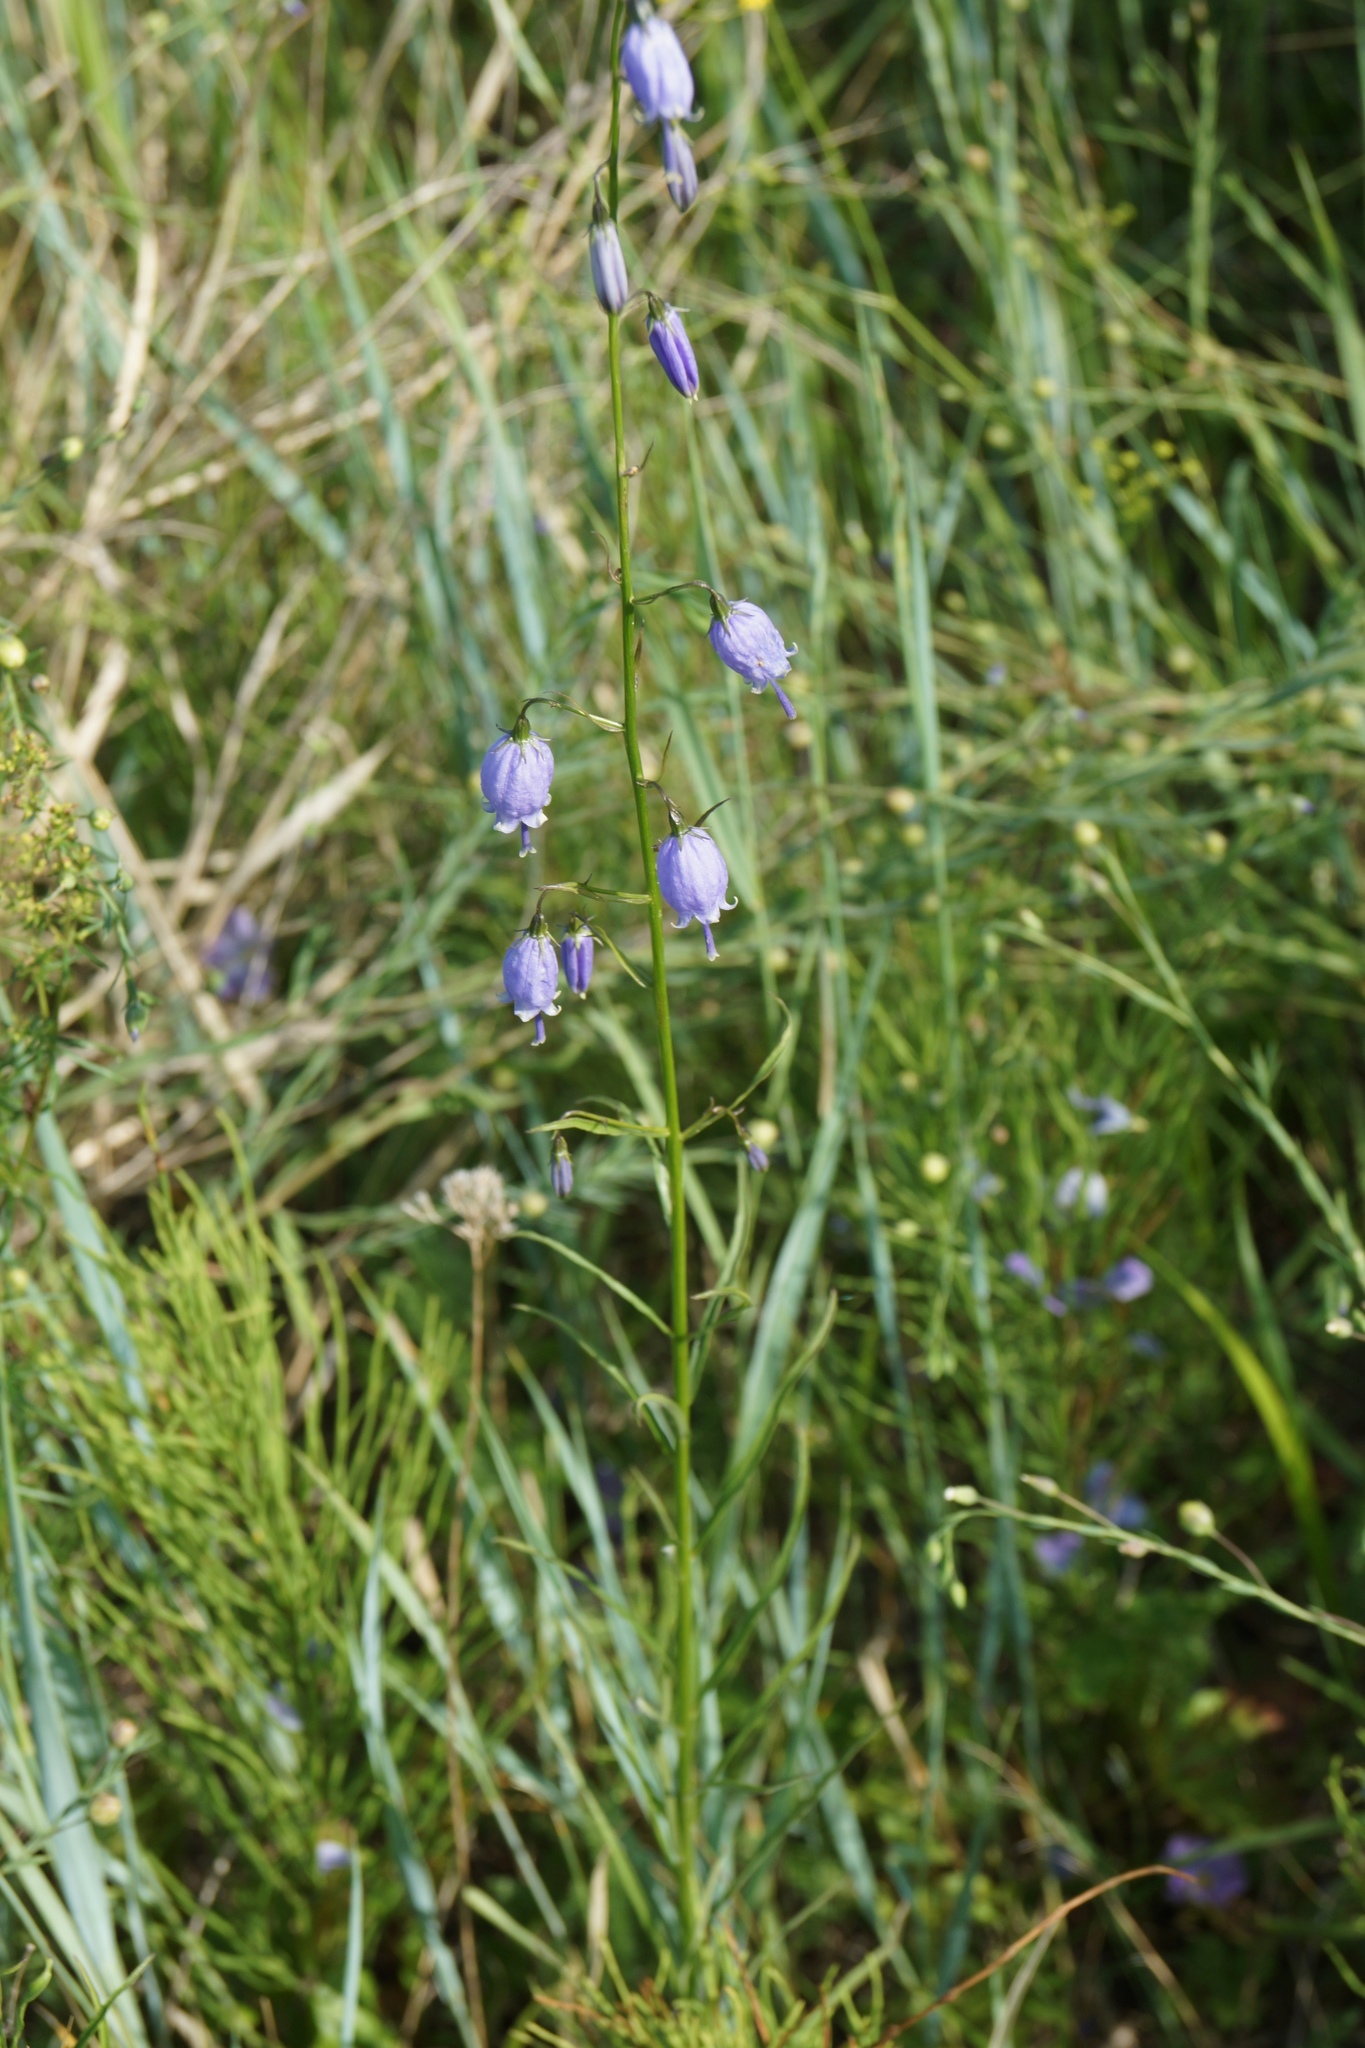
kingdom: Plantae
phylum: Tracheophyta
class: Magnoliopsida
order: Asterales
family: Campanulaceae
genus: Adenophora
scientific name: Adenophora stenanthina
